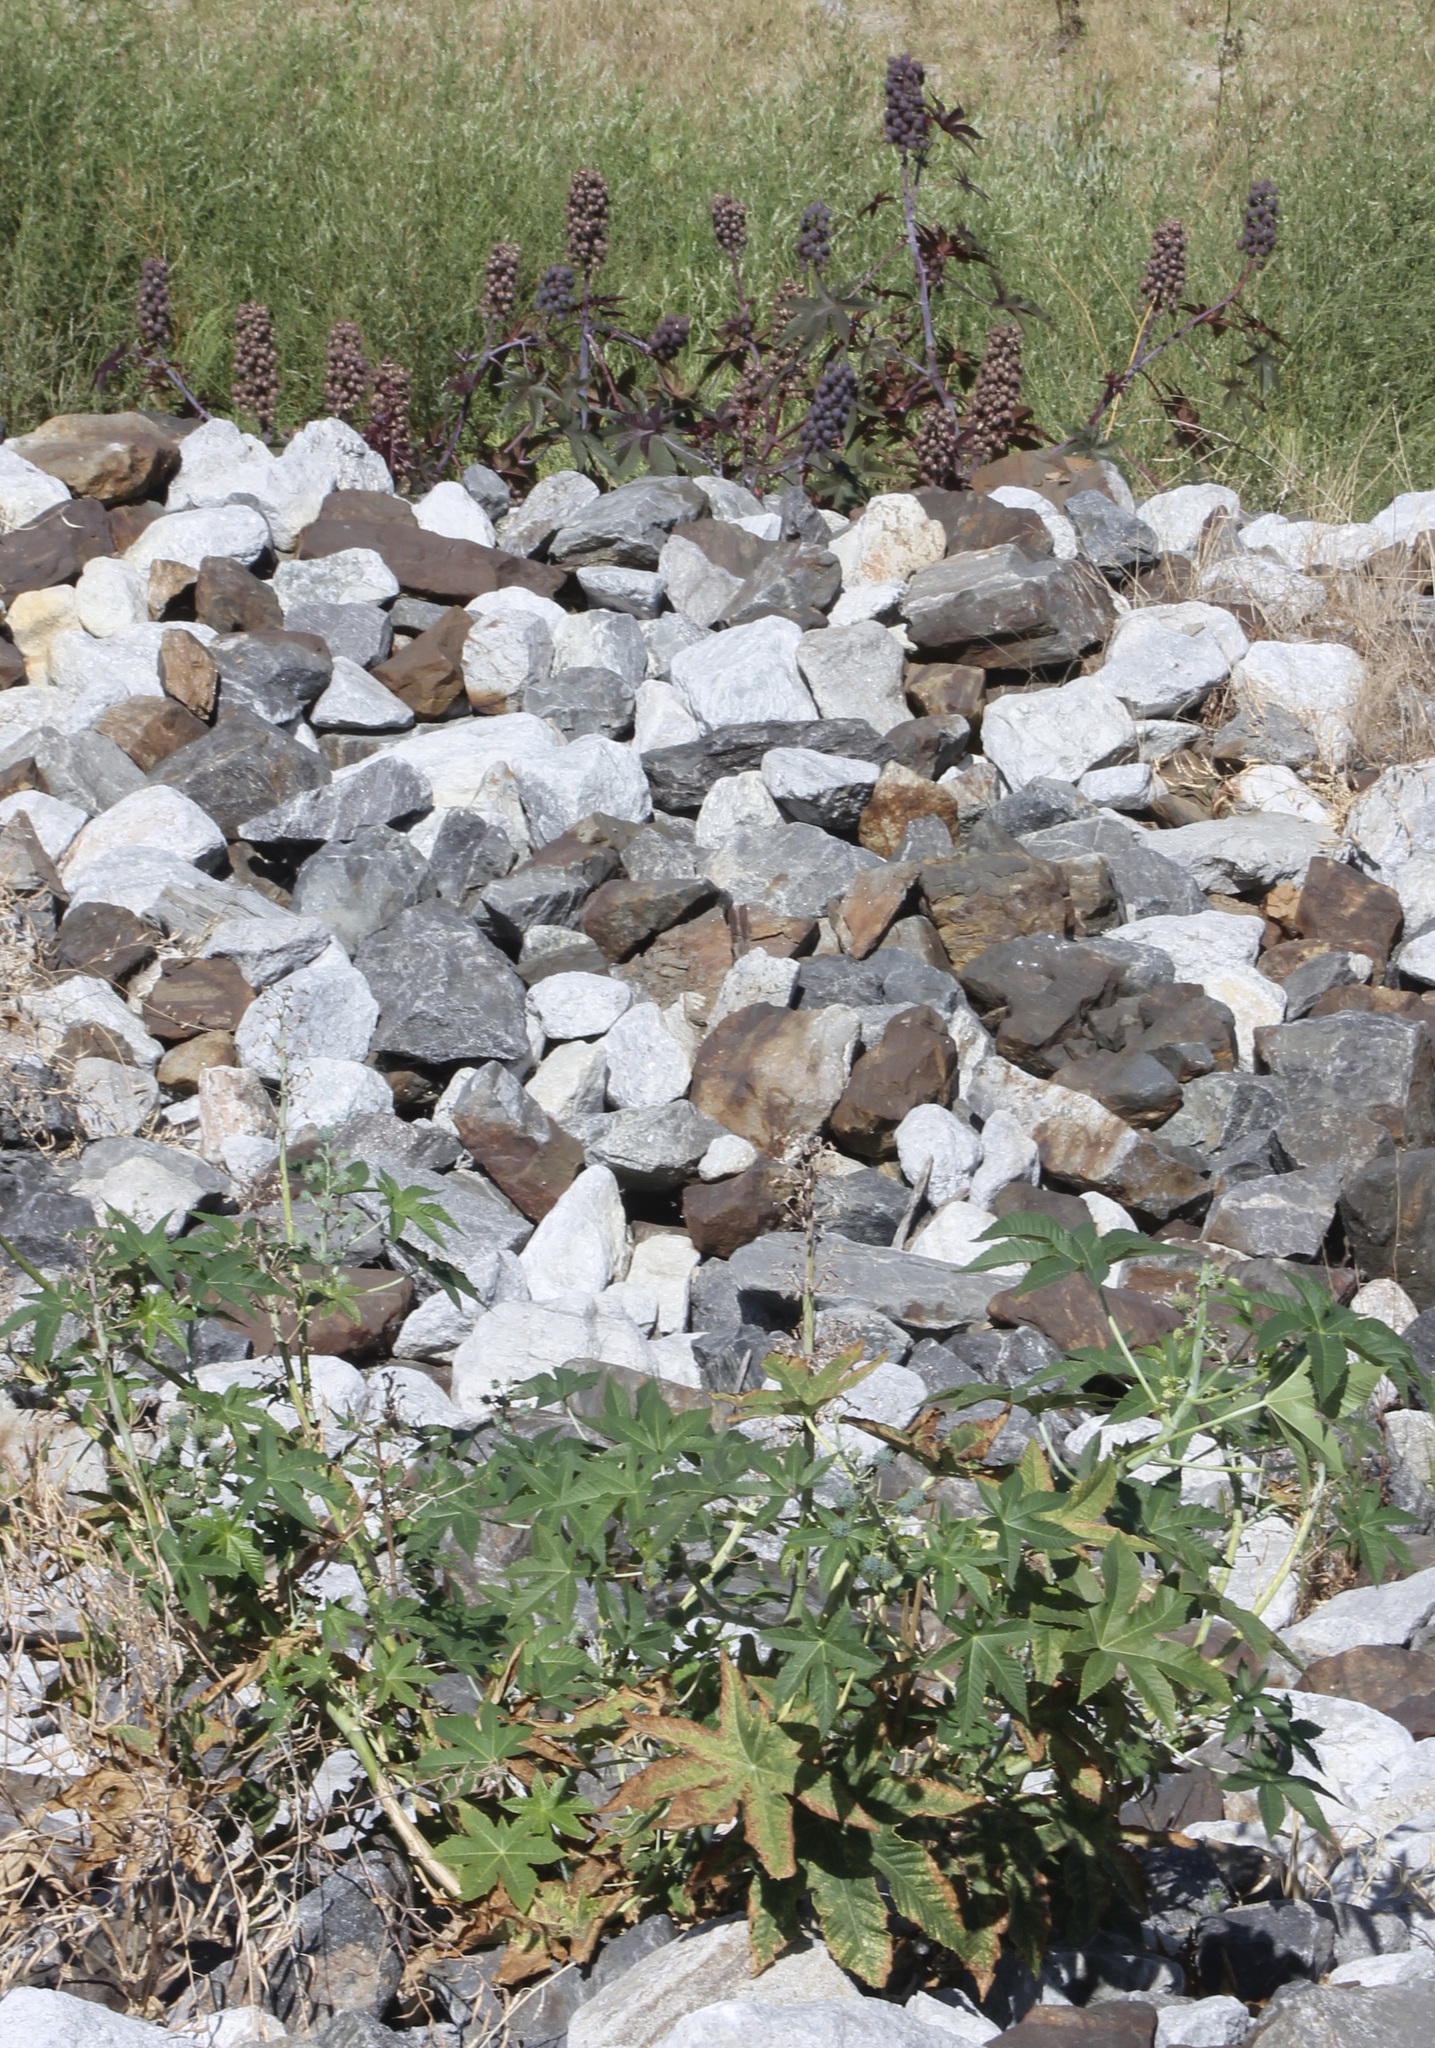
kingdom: Plantae
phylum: Tracheophyta
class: Magnoliopsida
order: Malpighiales
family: Euphorbiaceae
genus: Ricinus
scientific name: Ricinus communis
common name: Castor-oil-plant
